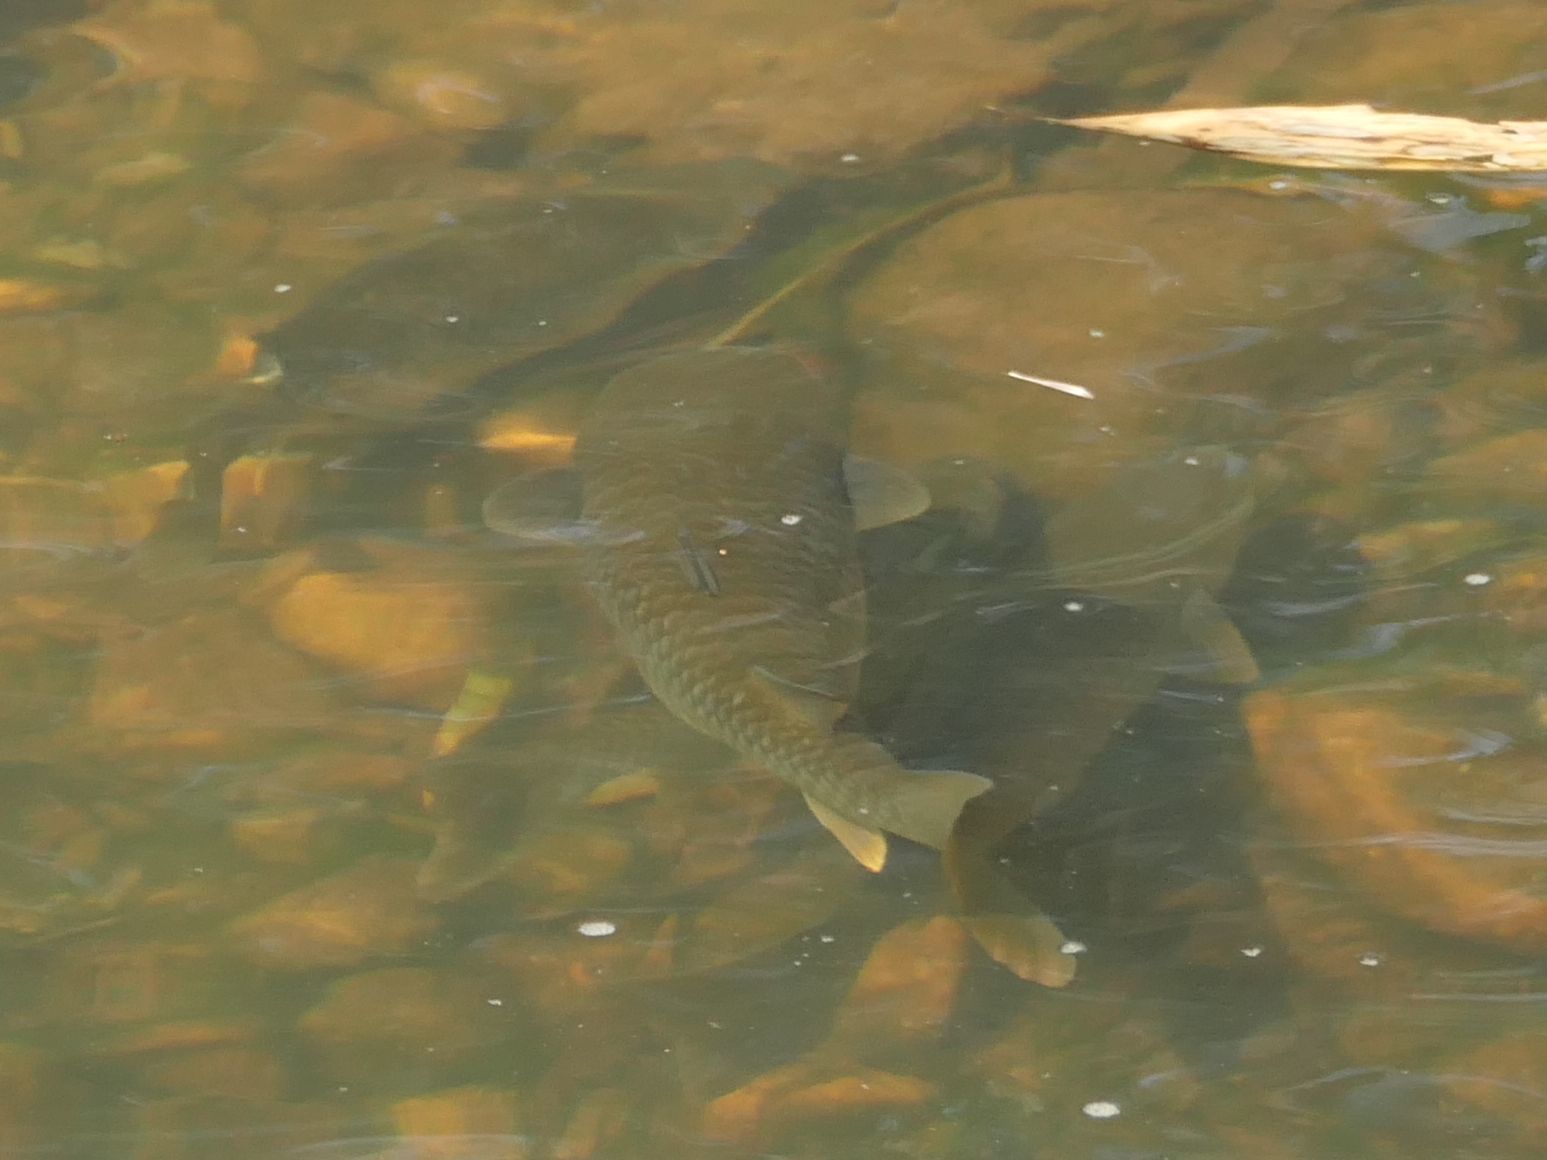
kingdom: Animalia
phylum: Chordata
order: Mugiliformes
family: Mugilidae
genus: Planiliza
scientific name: Planiliza alata
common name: Diamond mullet
